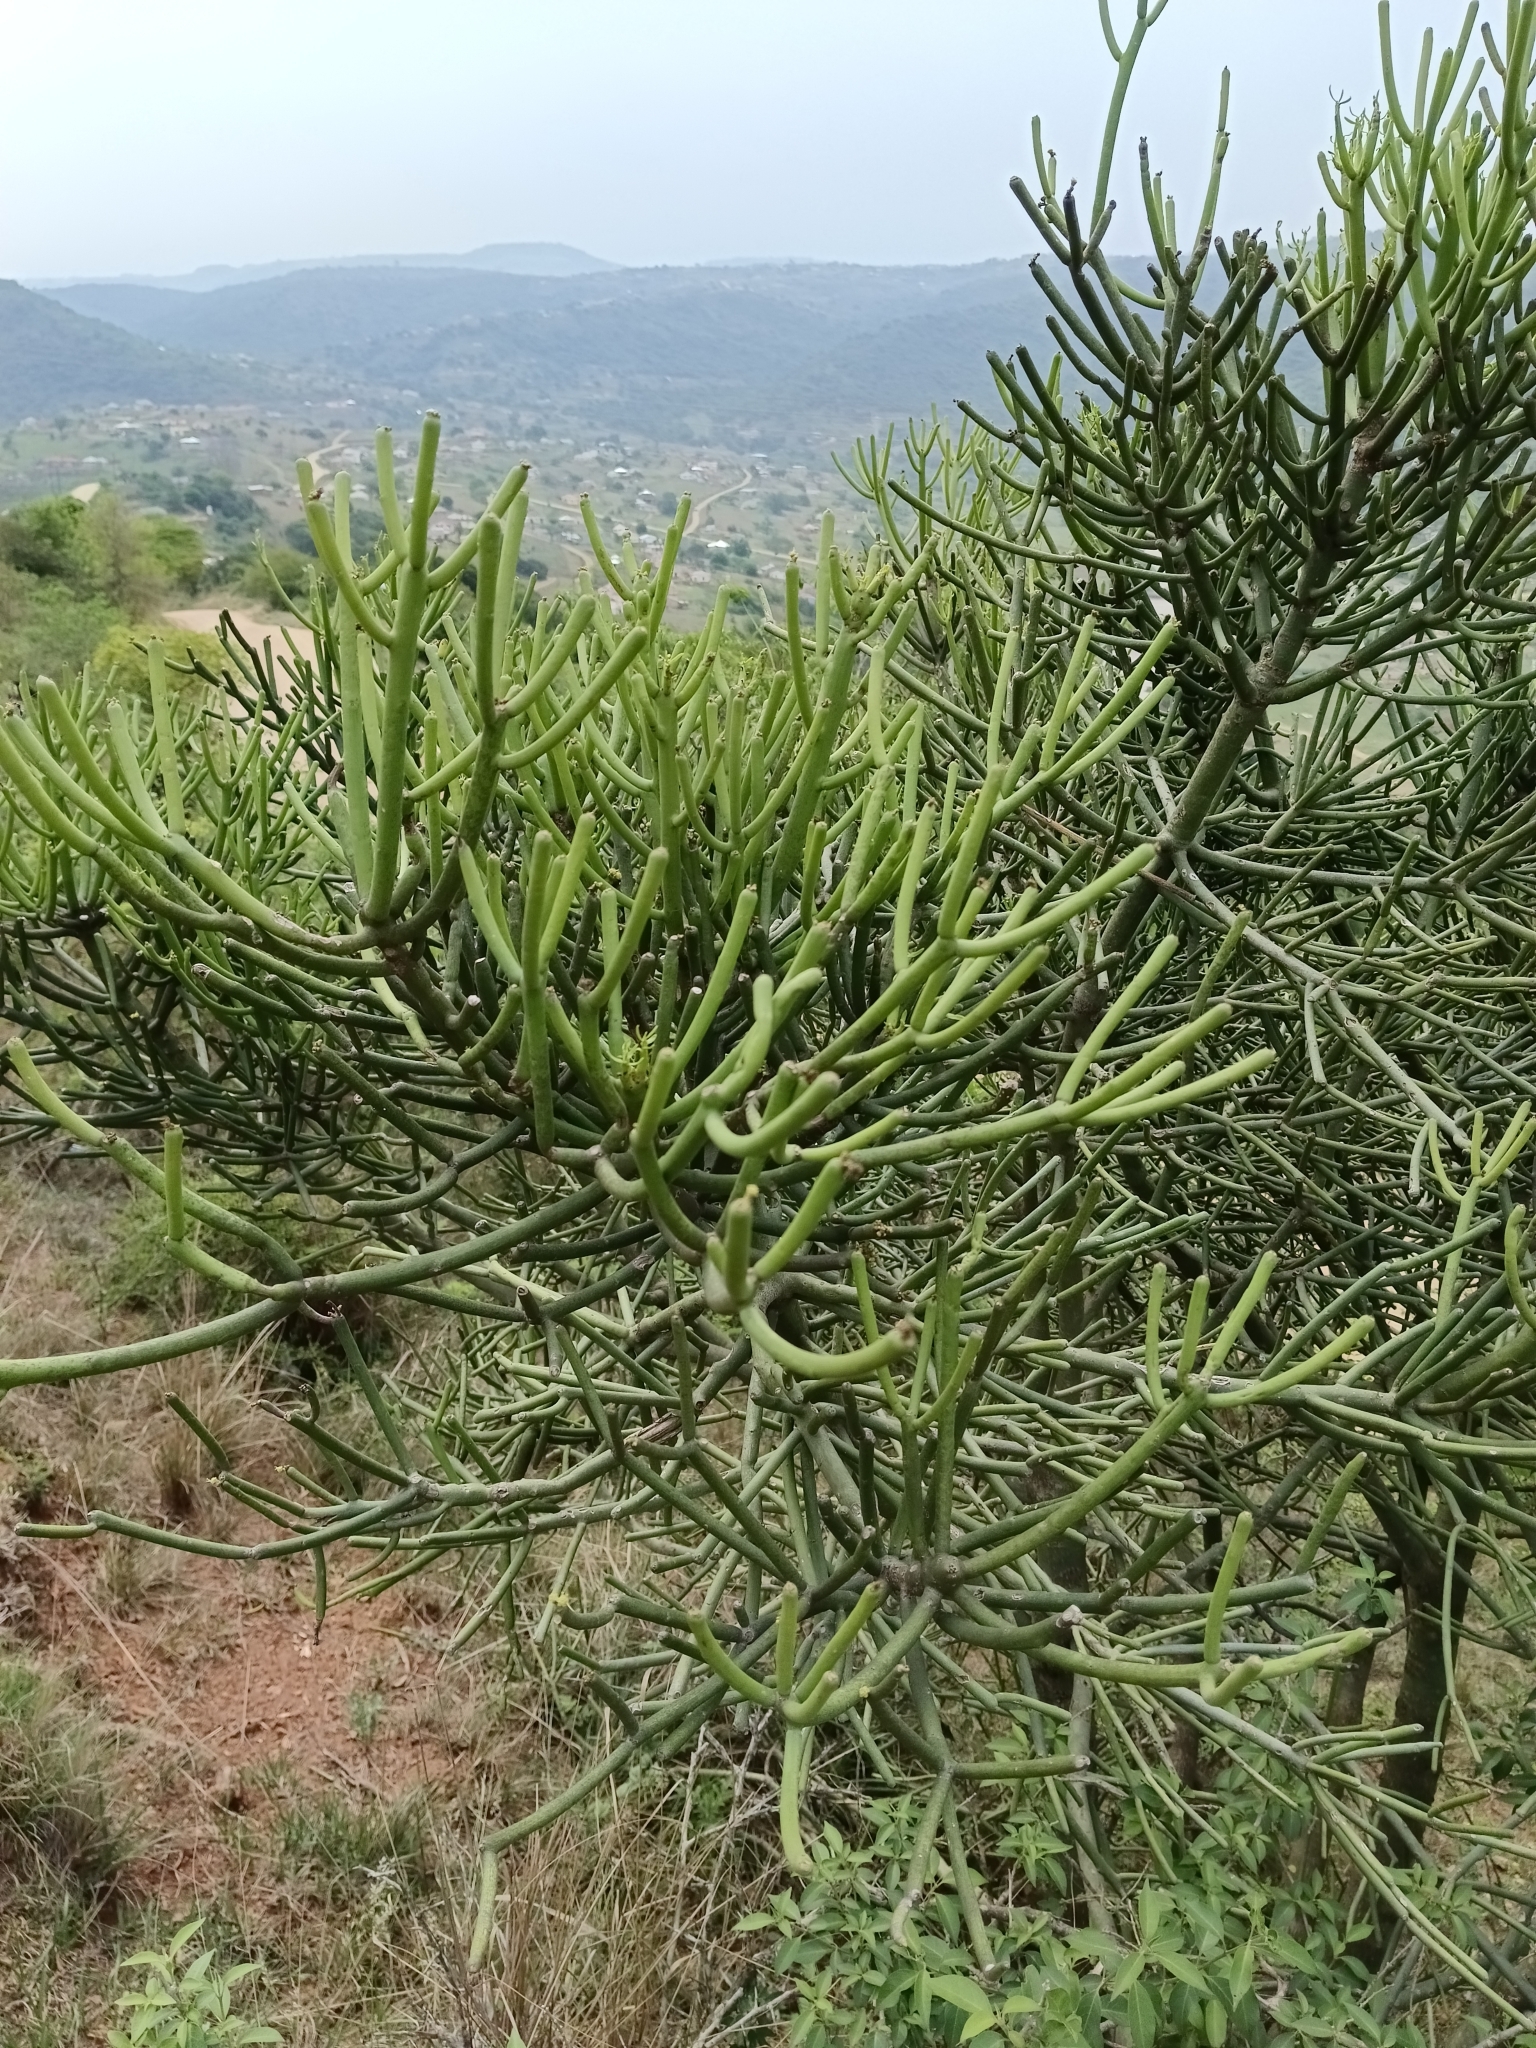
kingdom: Plantae
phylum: Tracheophyta
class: Magnoliopsida
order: Malpighiales
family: Euphorbiaceae
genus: Euphorbia
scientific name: Euphorbia tirucalli
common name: Indiantree spurge
